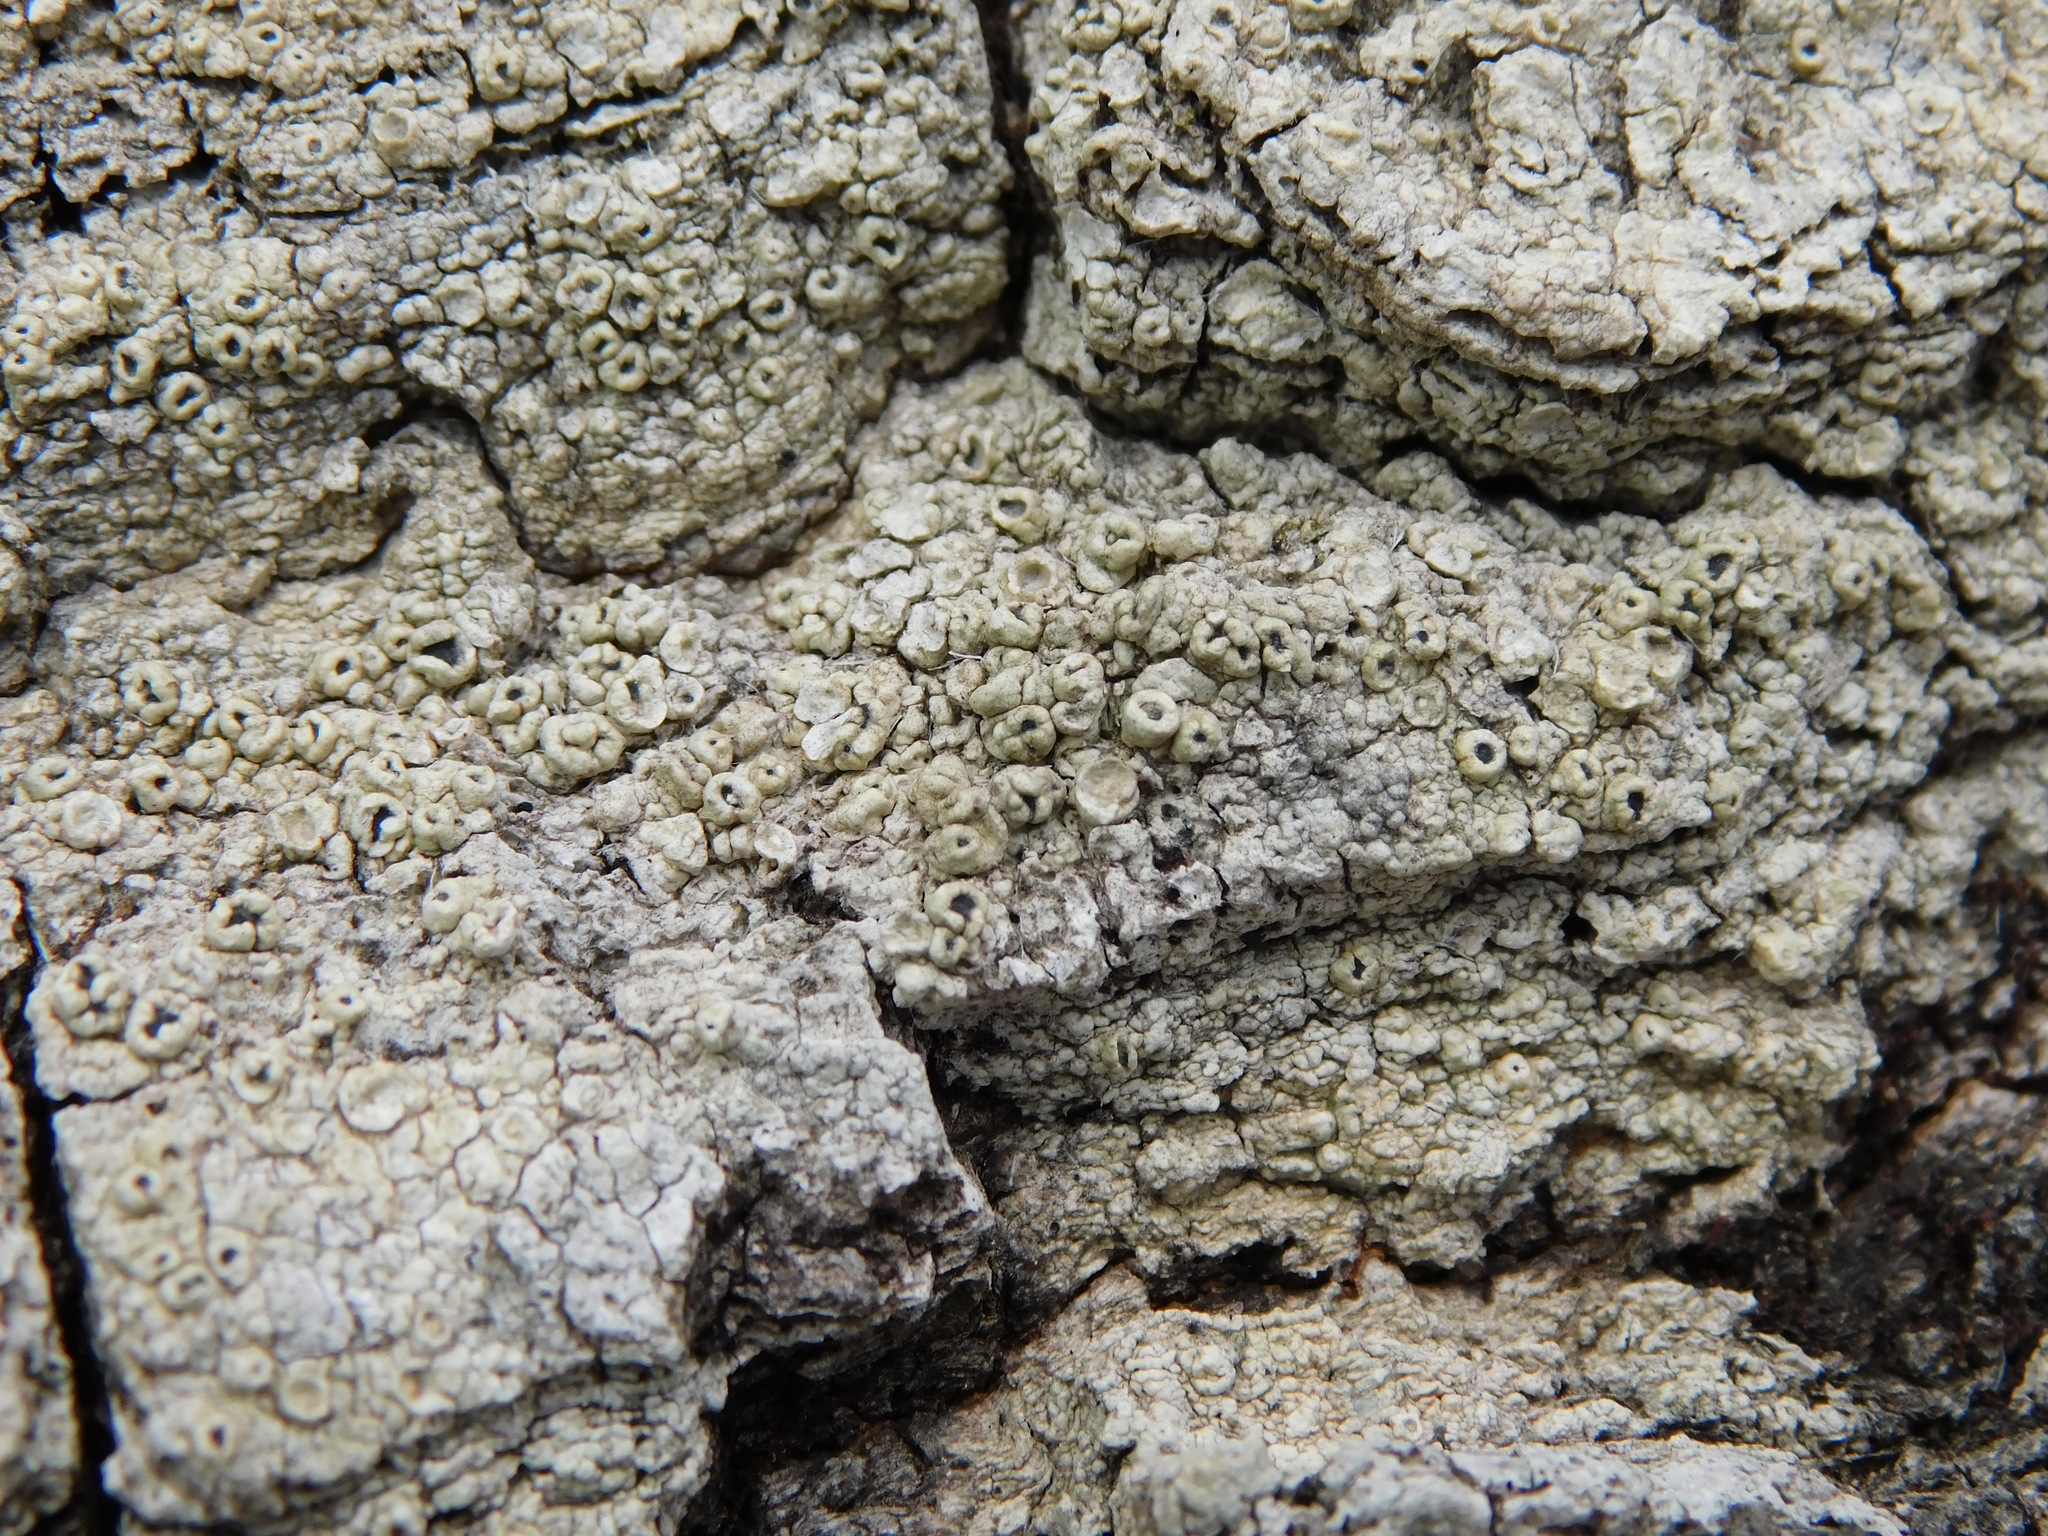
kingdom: Fungi
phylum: Ascomycota
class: Lecanoromycetes
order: Pertusariales
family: Coccotremataceae
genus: Coccotrema
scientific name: Coccotrema cucurbitula
